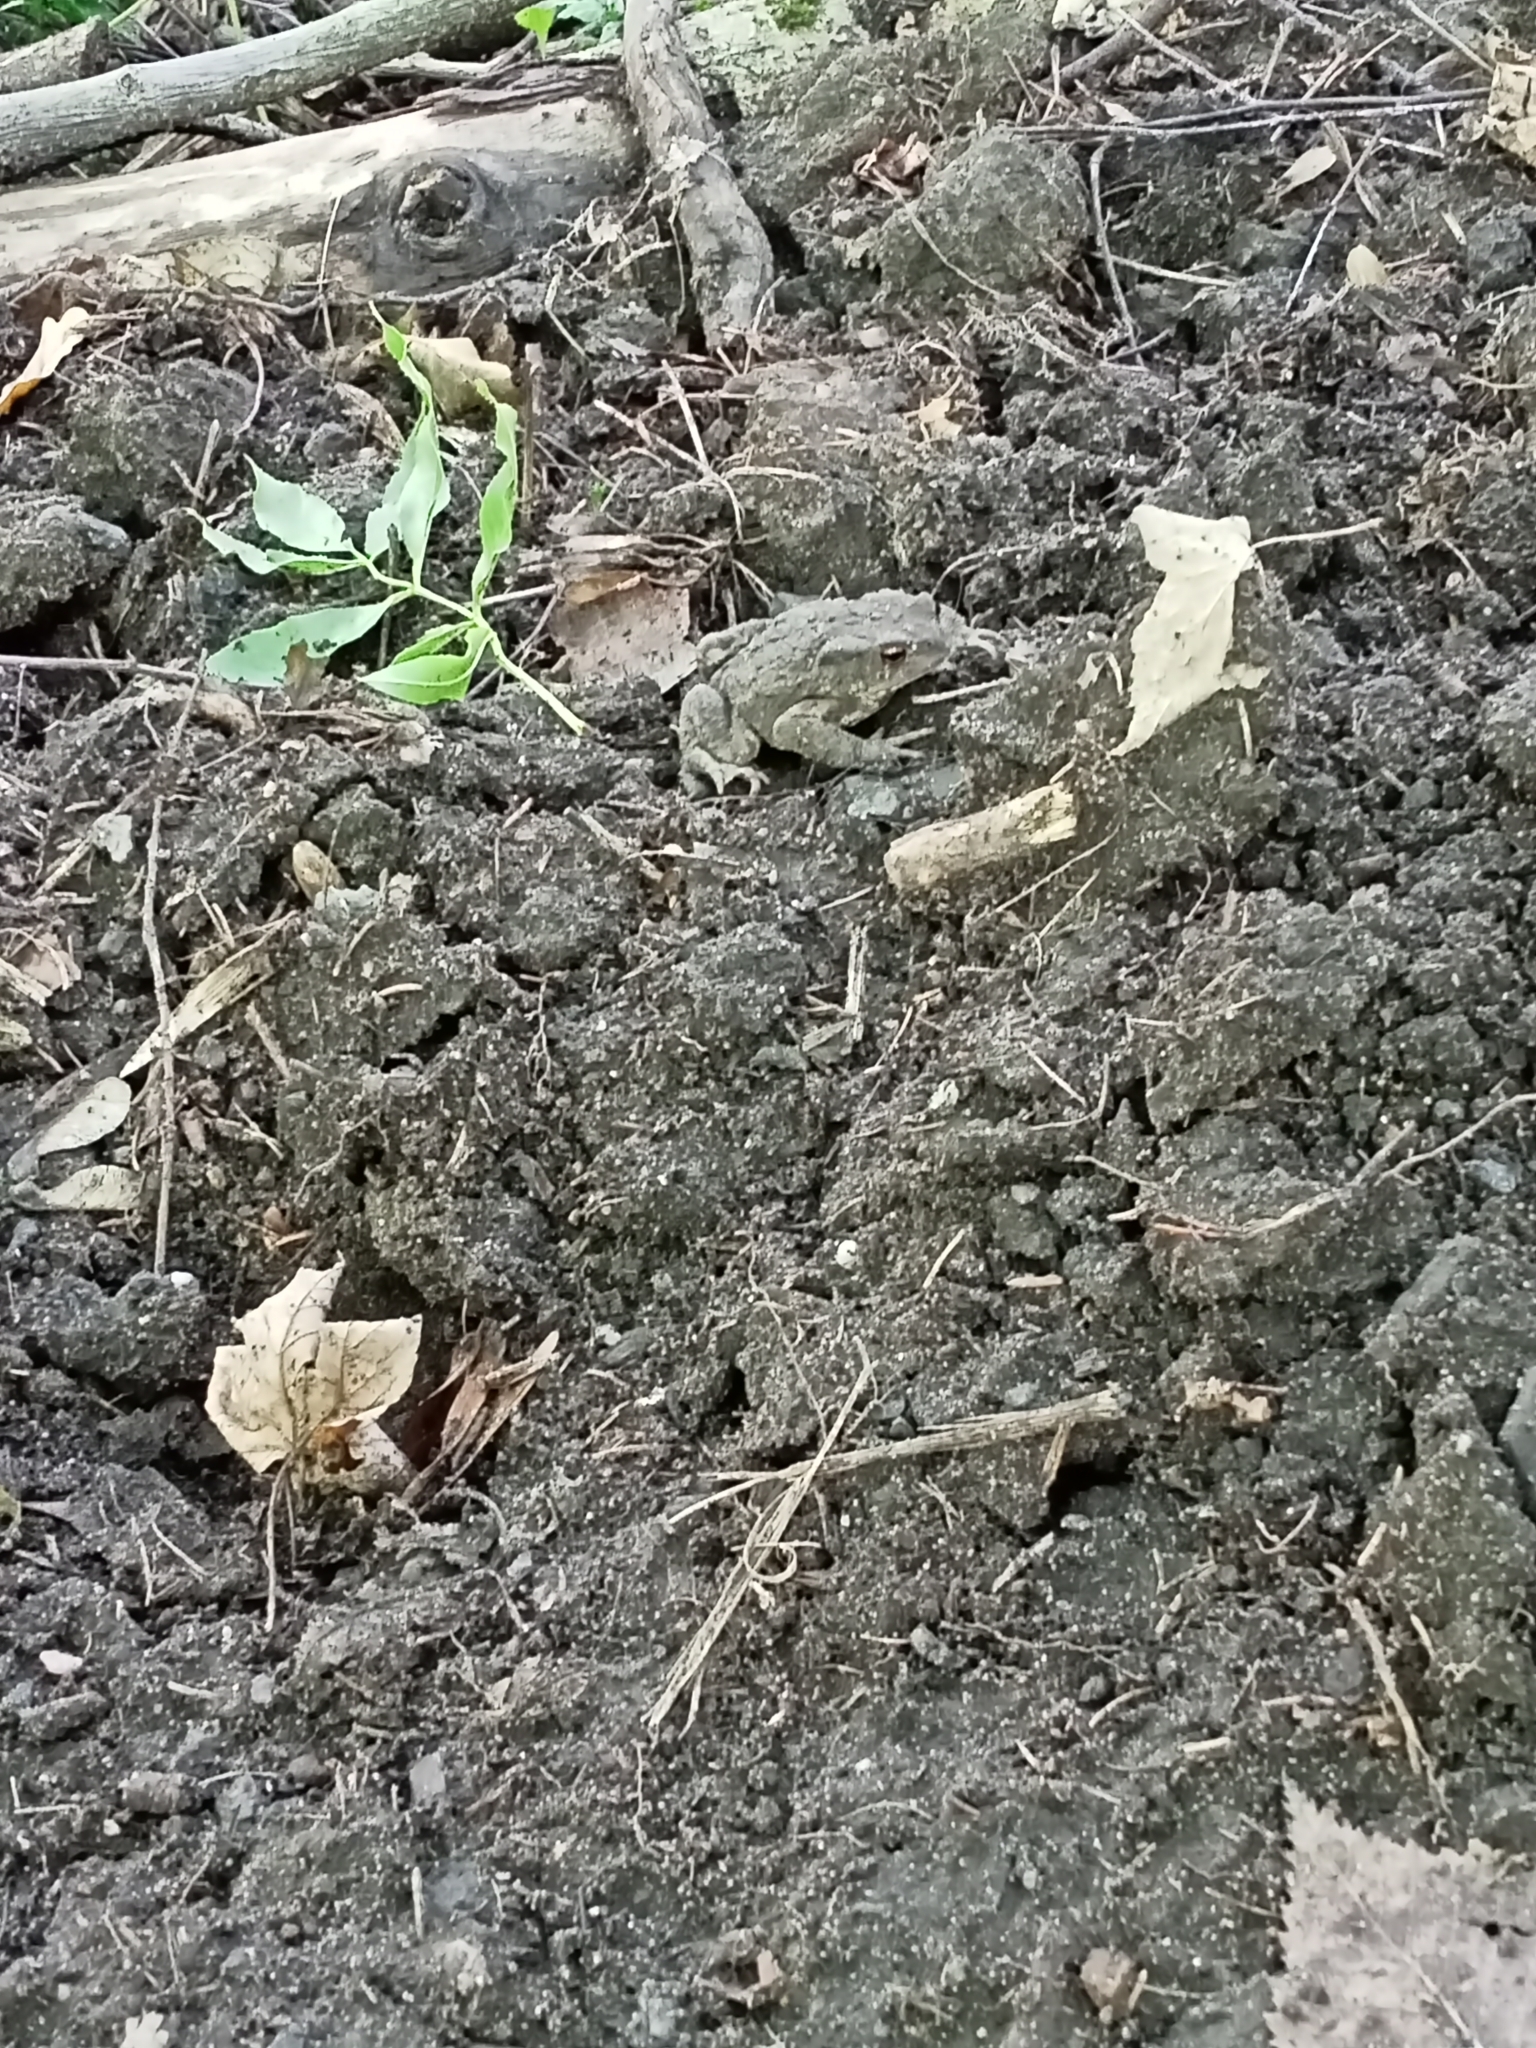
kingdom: Animalia
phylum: Chordata
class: Amphibia
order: Anura
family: Bufonidae
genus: Bufo
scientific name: Bufo bufo
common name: Common toad
